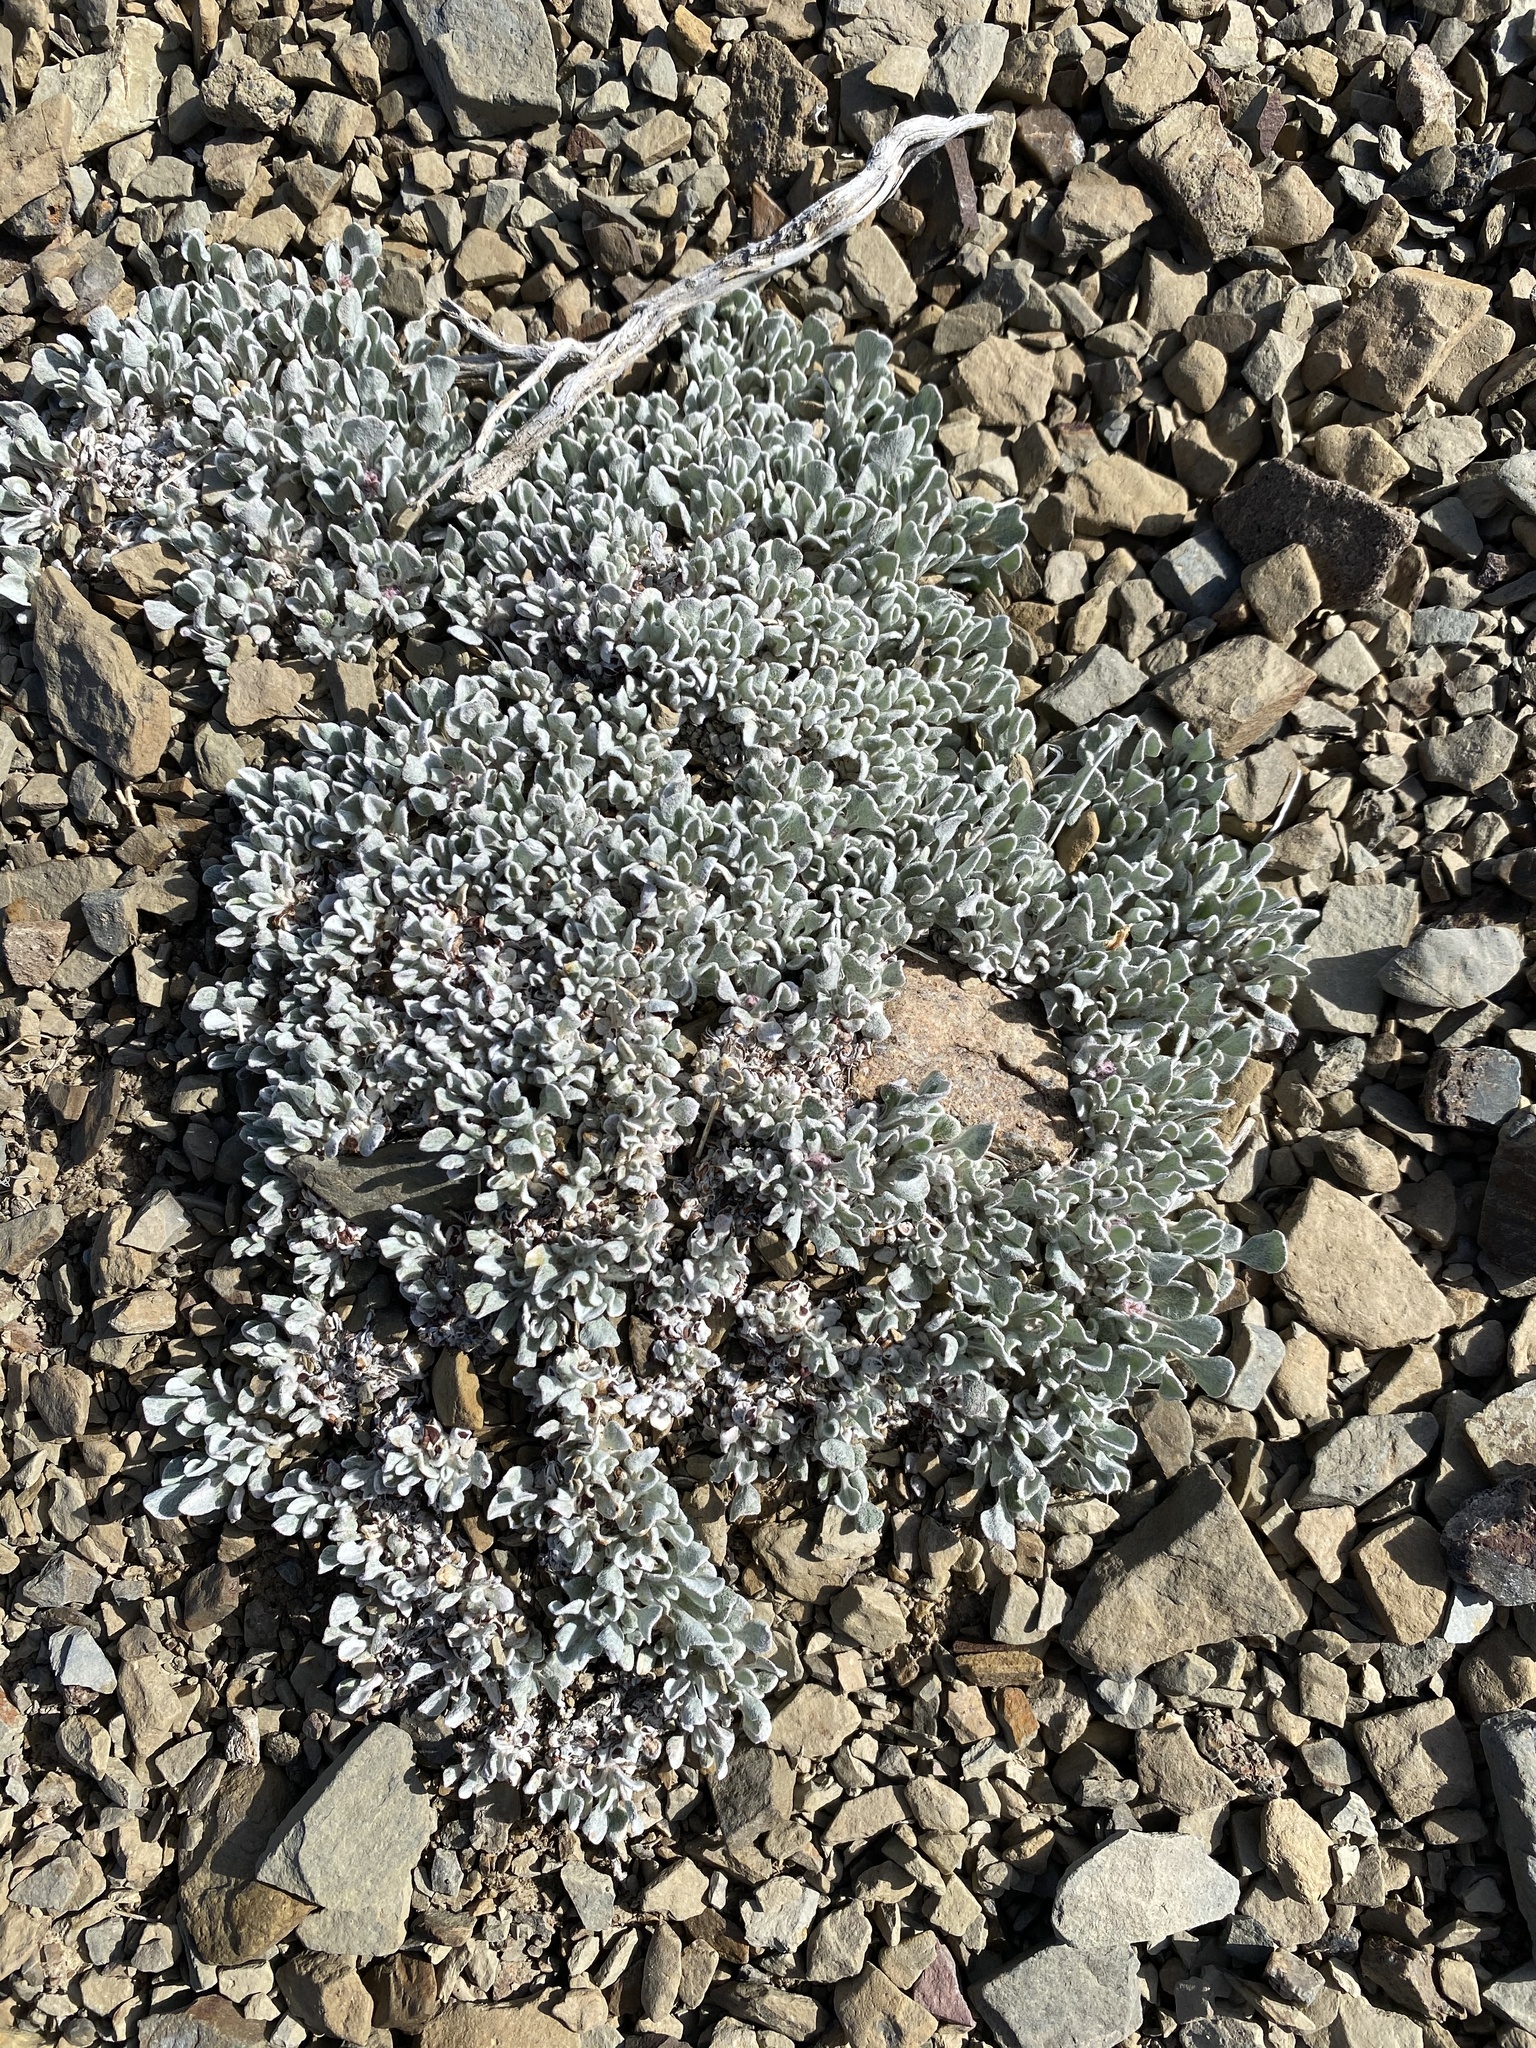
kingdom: Plantae
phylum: Tracheophyta
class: Magnoliopsida
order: Caryophyllales
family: Polygonaceae
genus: Eriogonum
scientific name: Eriogonum ovalifolium
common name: Cushion buckwheat
